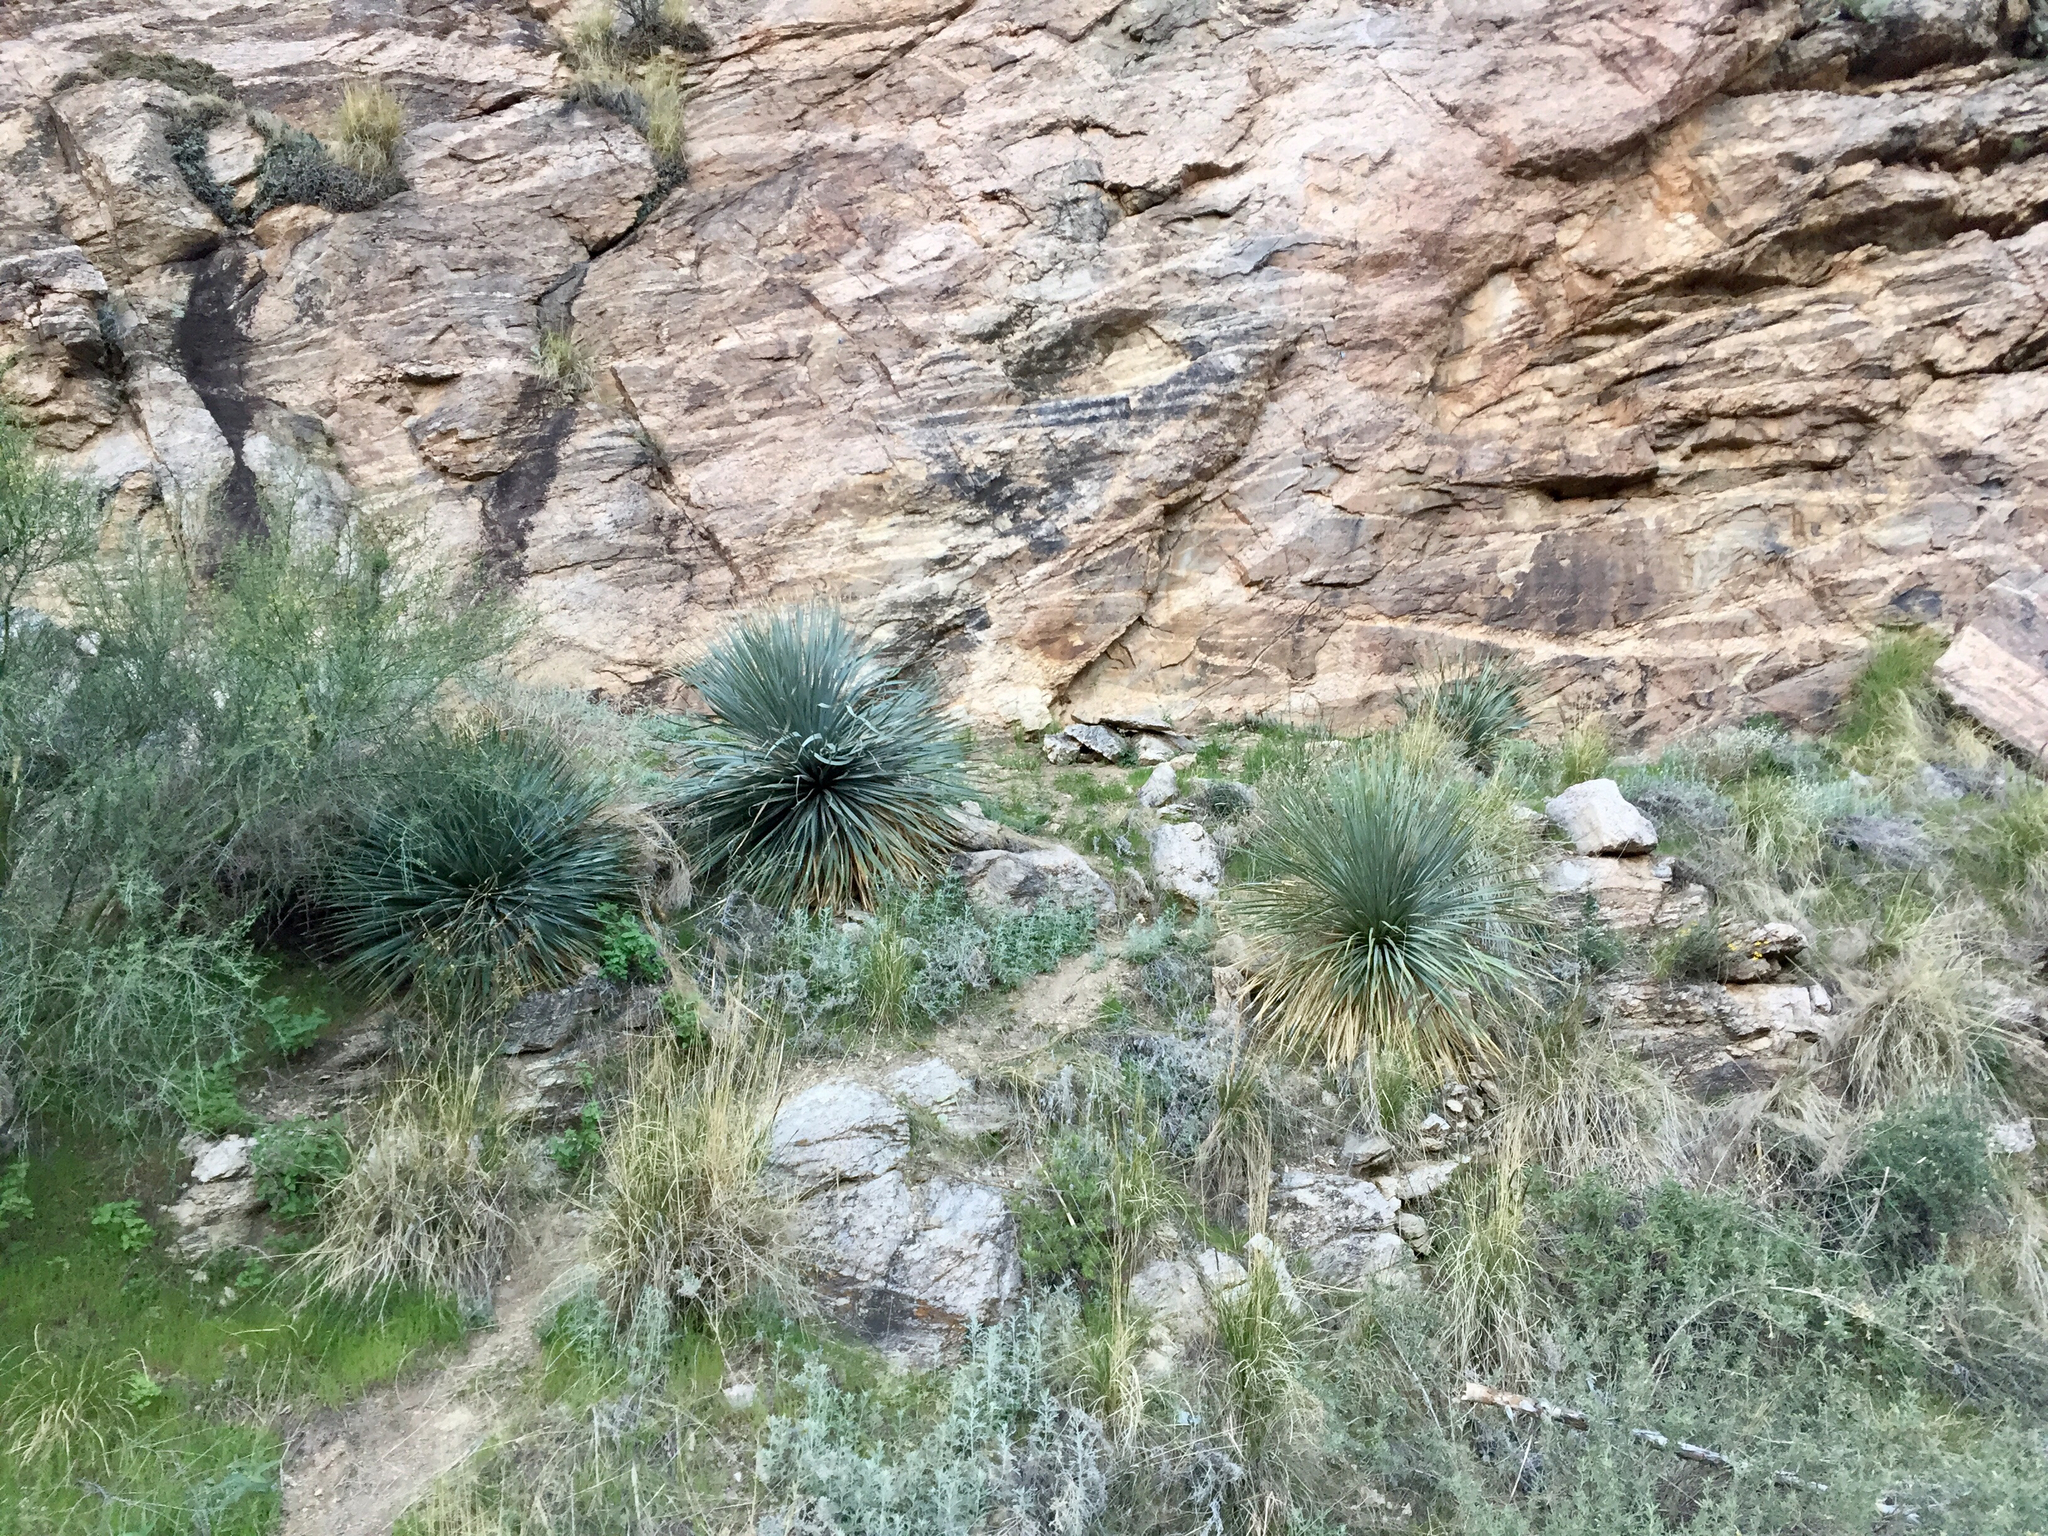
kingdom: Plantae
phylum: Tracheophyta
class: Liliopsida
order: Asparagales
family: Asparagaceae
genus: Dasylirion
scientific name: Dasylirion wheeleri
